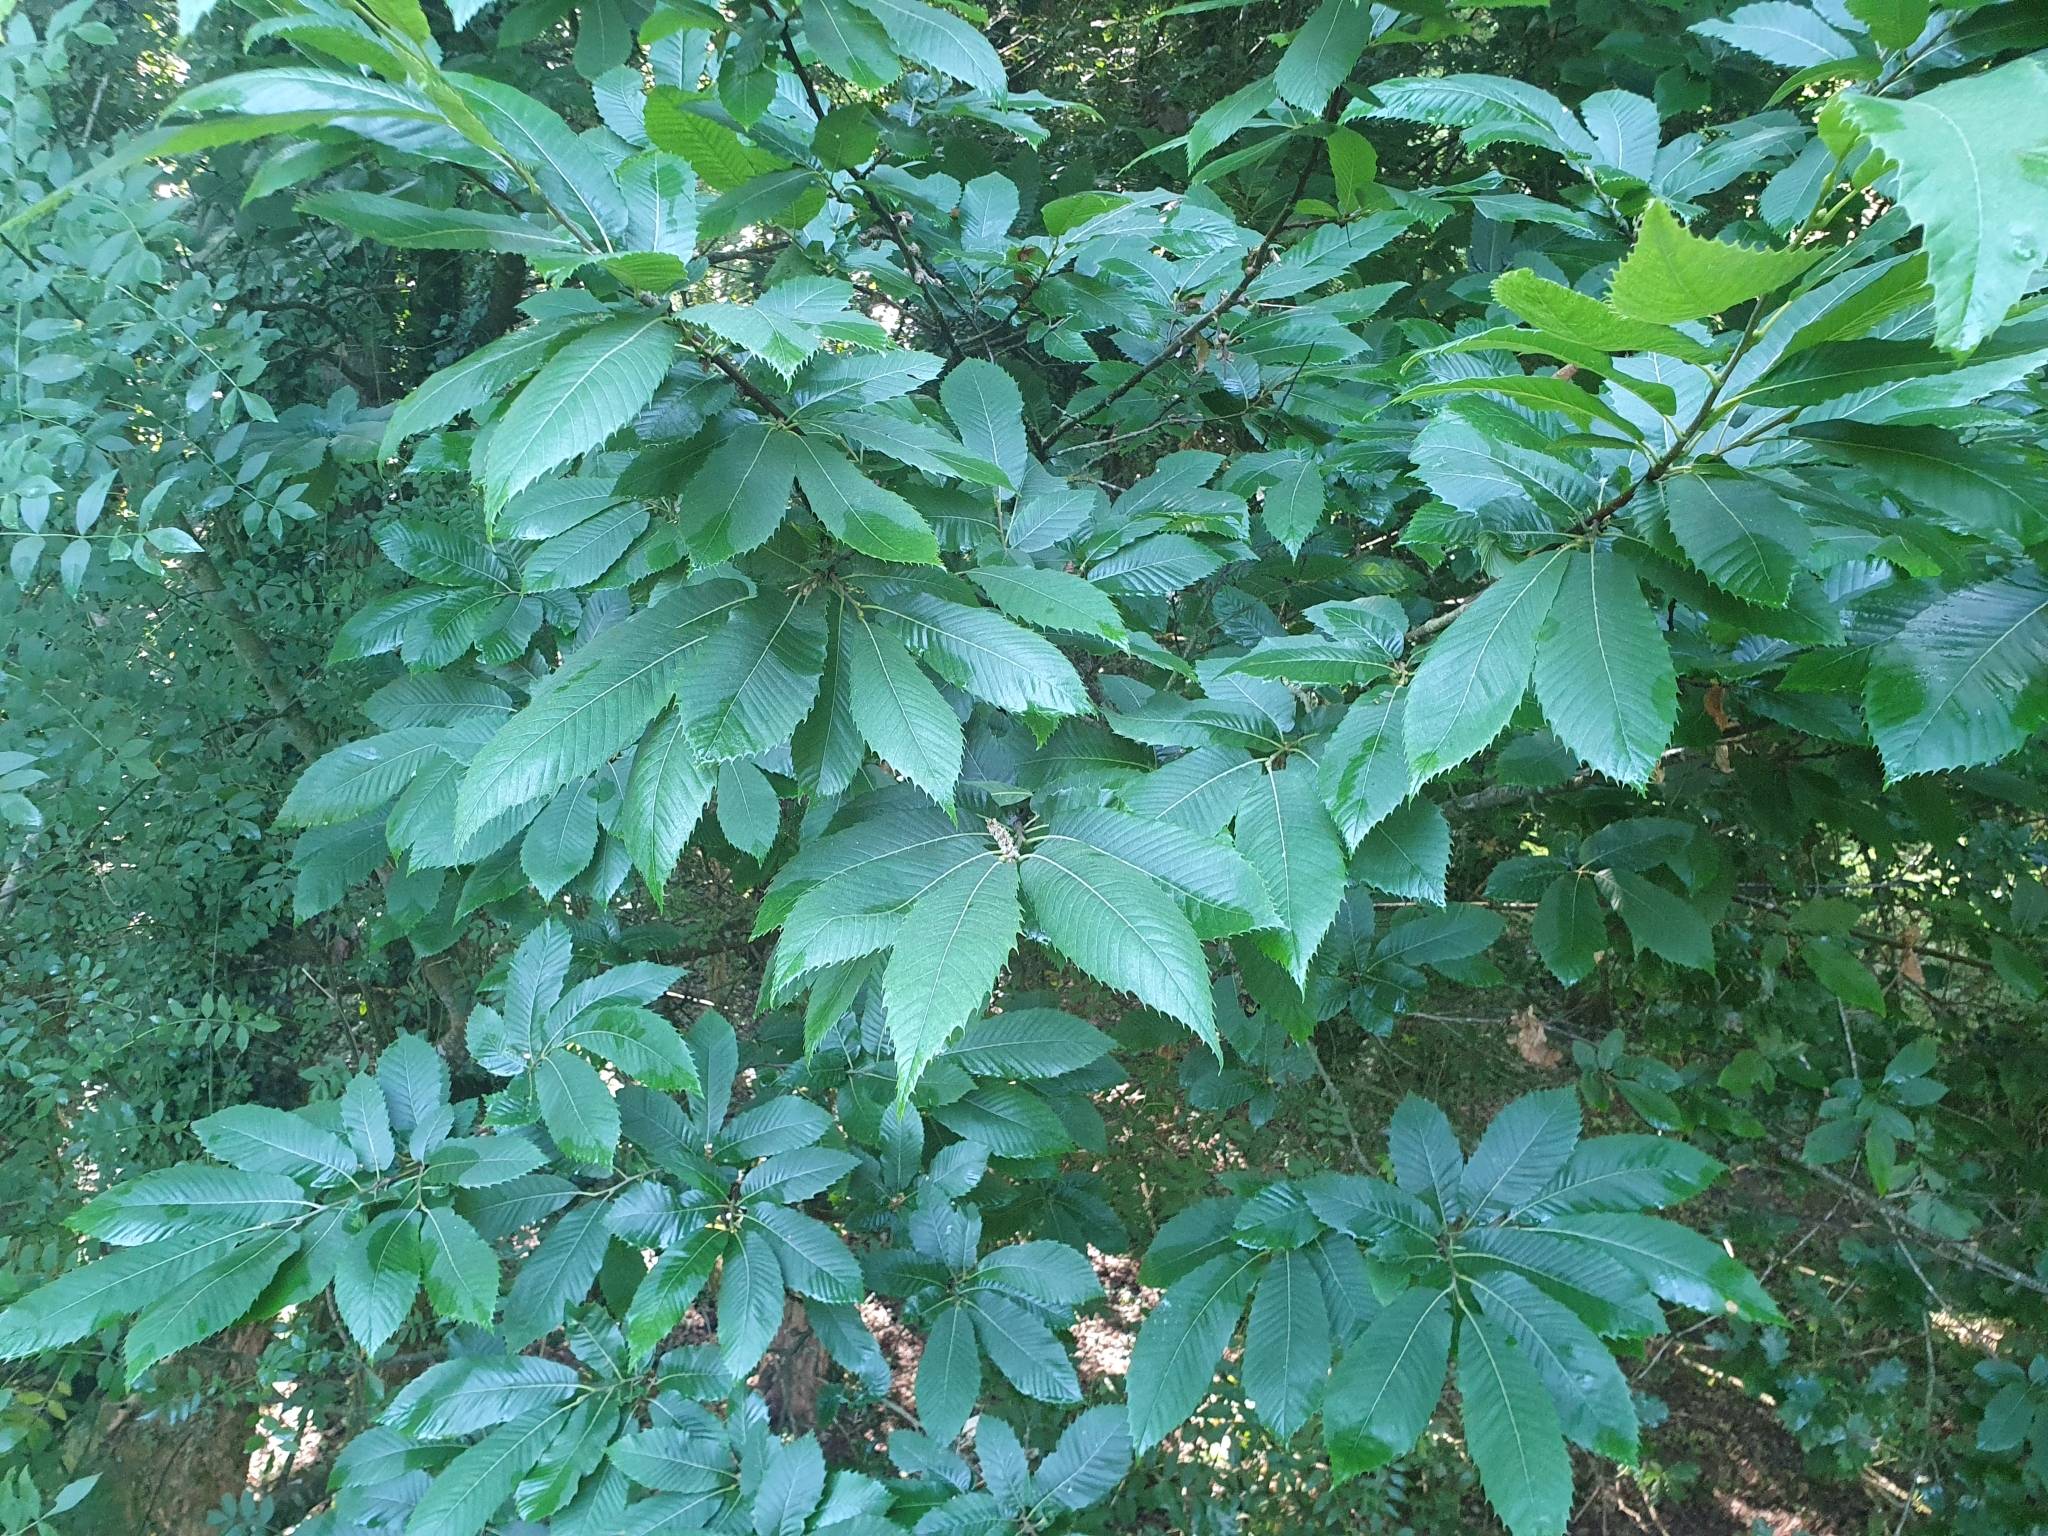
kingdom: Plantae
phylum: Tracheophyta
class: Magnoliopsida
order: Fagales
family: Fagaceae
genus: Castanea
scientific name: Castanea sativa
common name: Sweet chestnut
